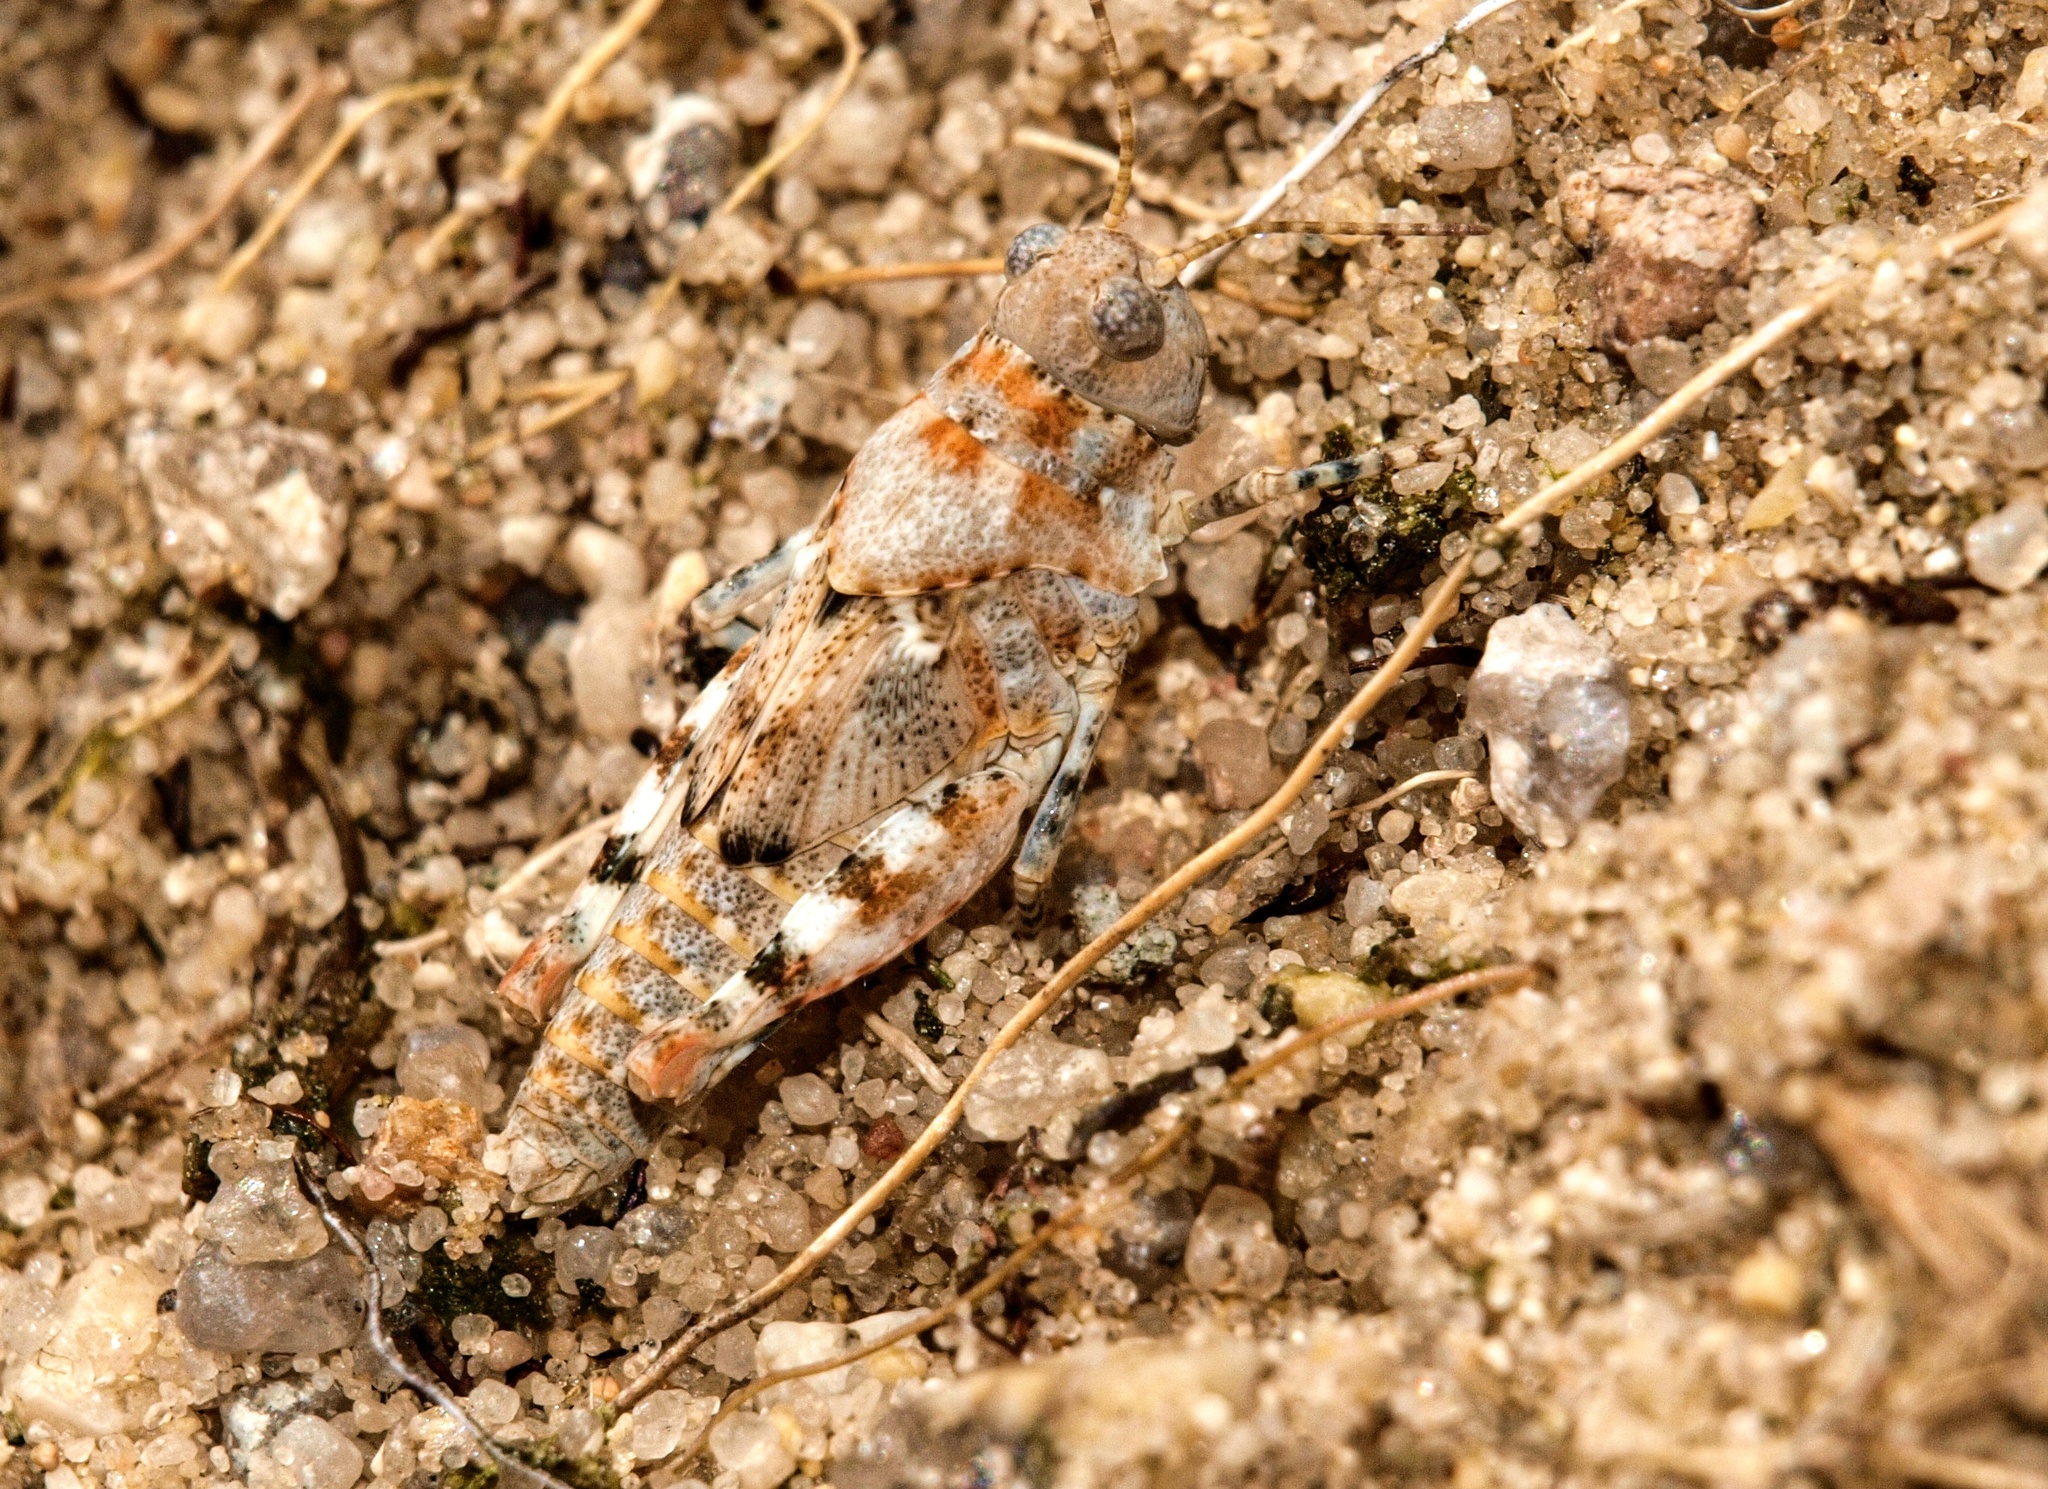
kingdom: Animalia
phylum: Arthropoda
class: Insecta
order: Orthoptera
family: Acrididae
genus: Sphingonotus
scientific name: Sphingonotus caerulans
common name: Blue-winged locust
